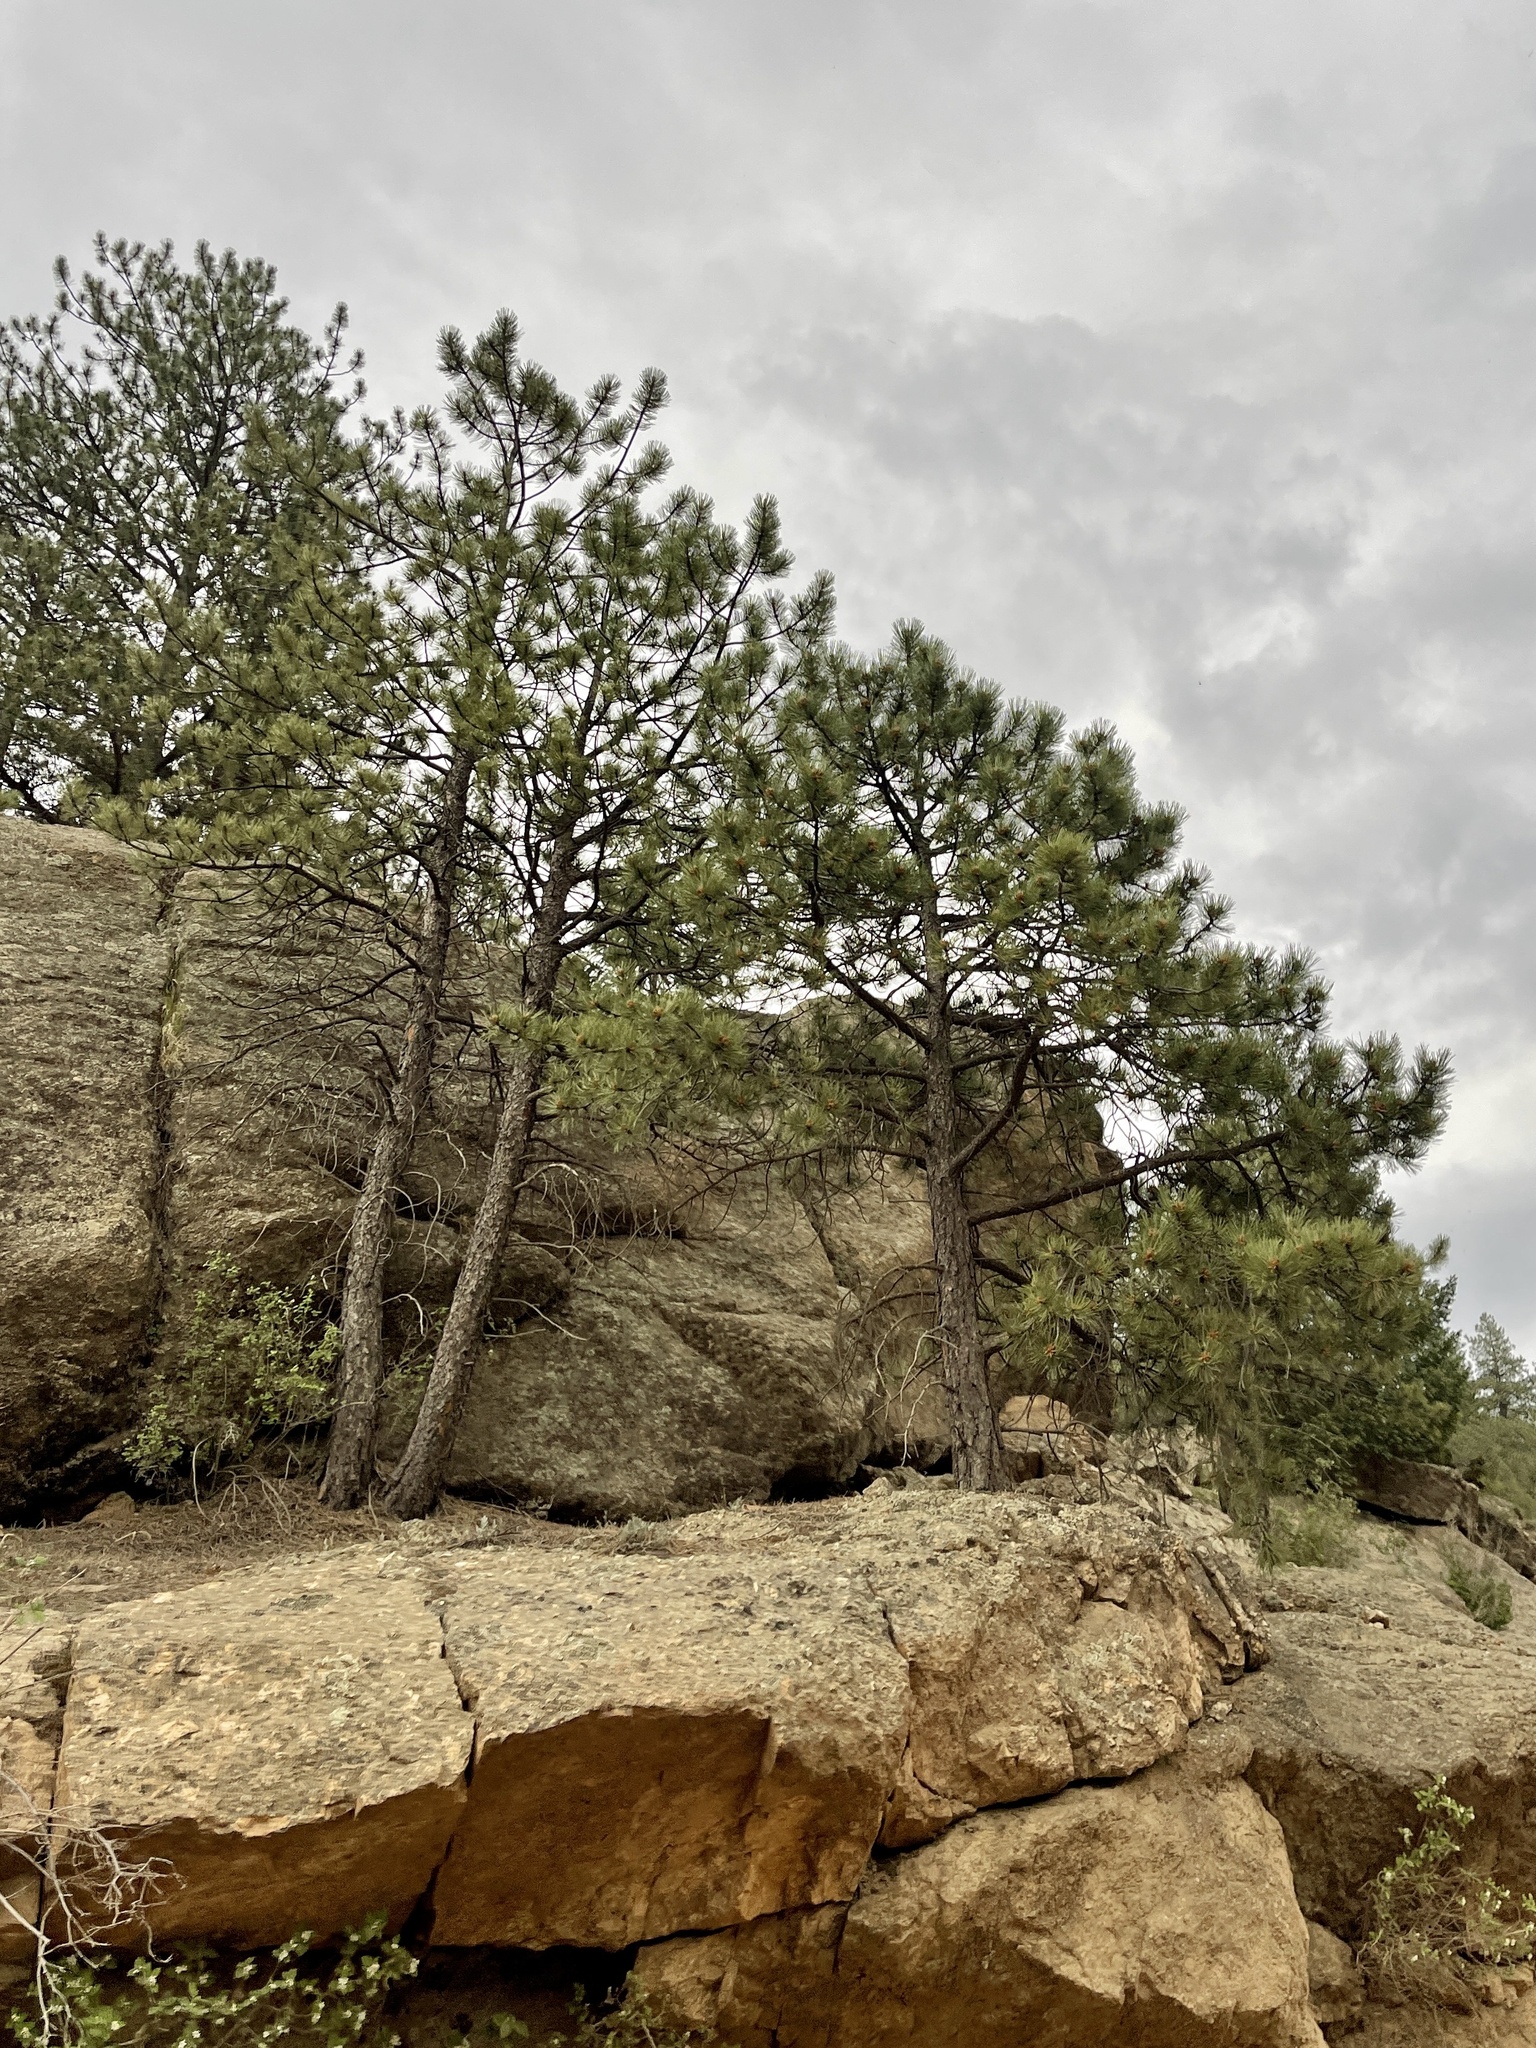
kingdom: Plantae
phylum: Tracheophyta
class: Pinopsida
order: Pinales
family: Pinaceae
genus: Pinus
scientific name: Pinus ponderosa
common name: Western yellow-pine
